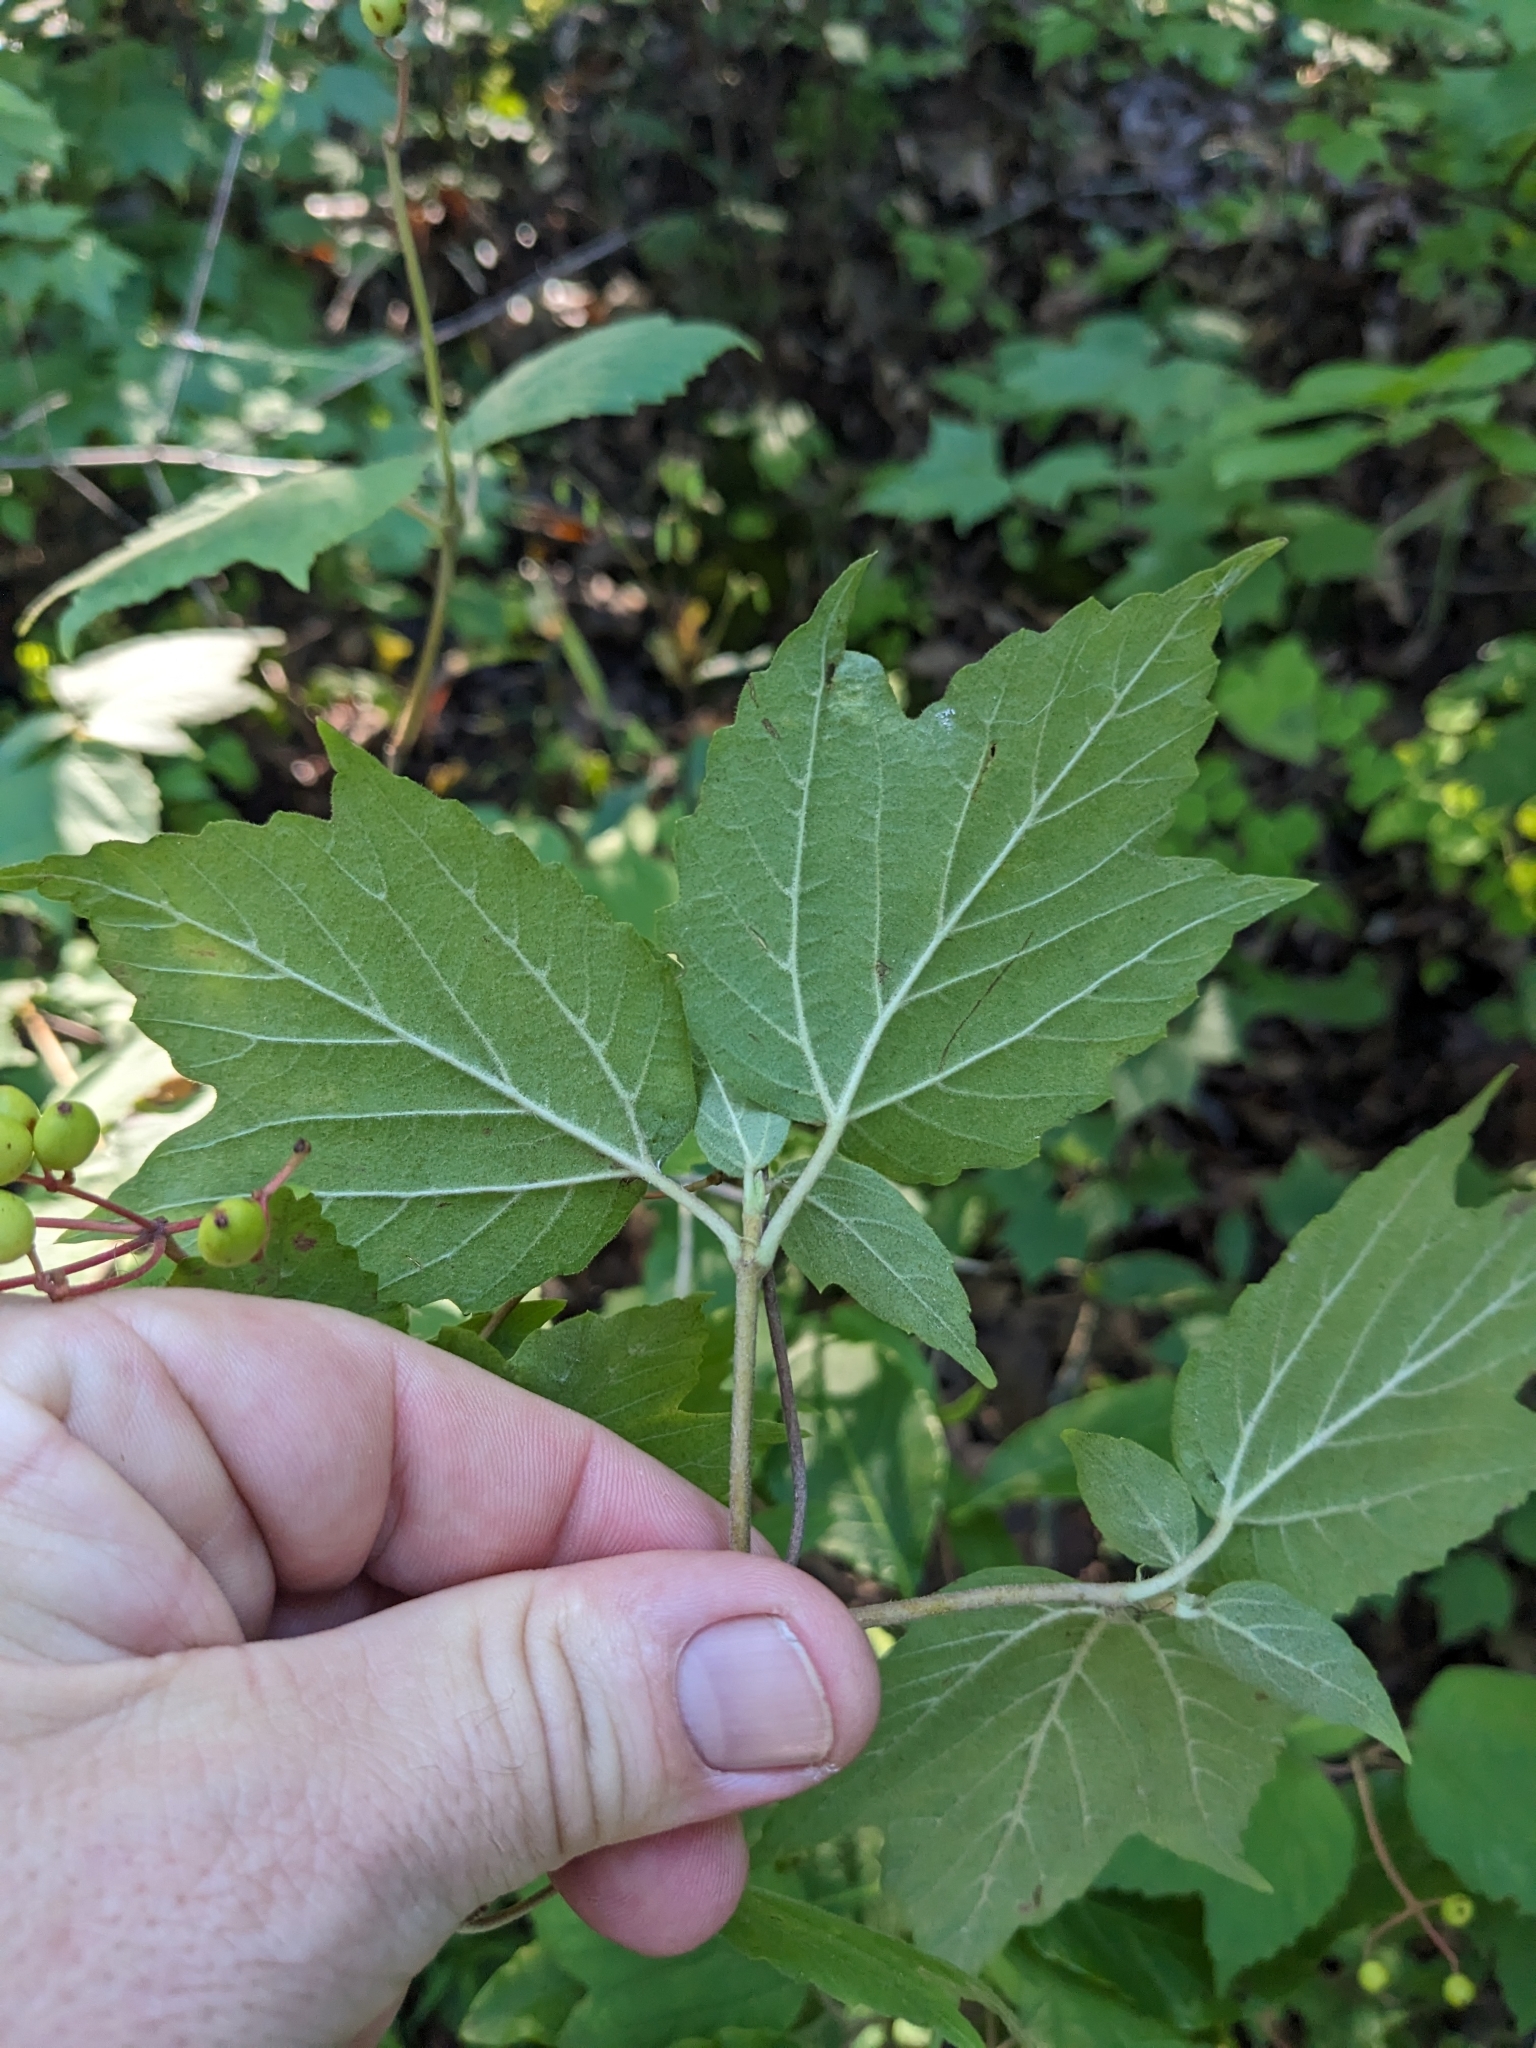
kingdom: Plantae
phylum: Tracheophyta
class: Magnoliopsida
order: Dipsacales
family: Viburnaceae
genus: Viburnum
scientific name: Viburnum acerifolium
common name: Dockmackie
